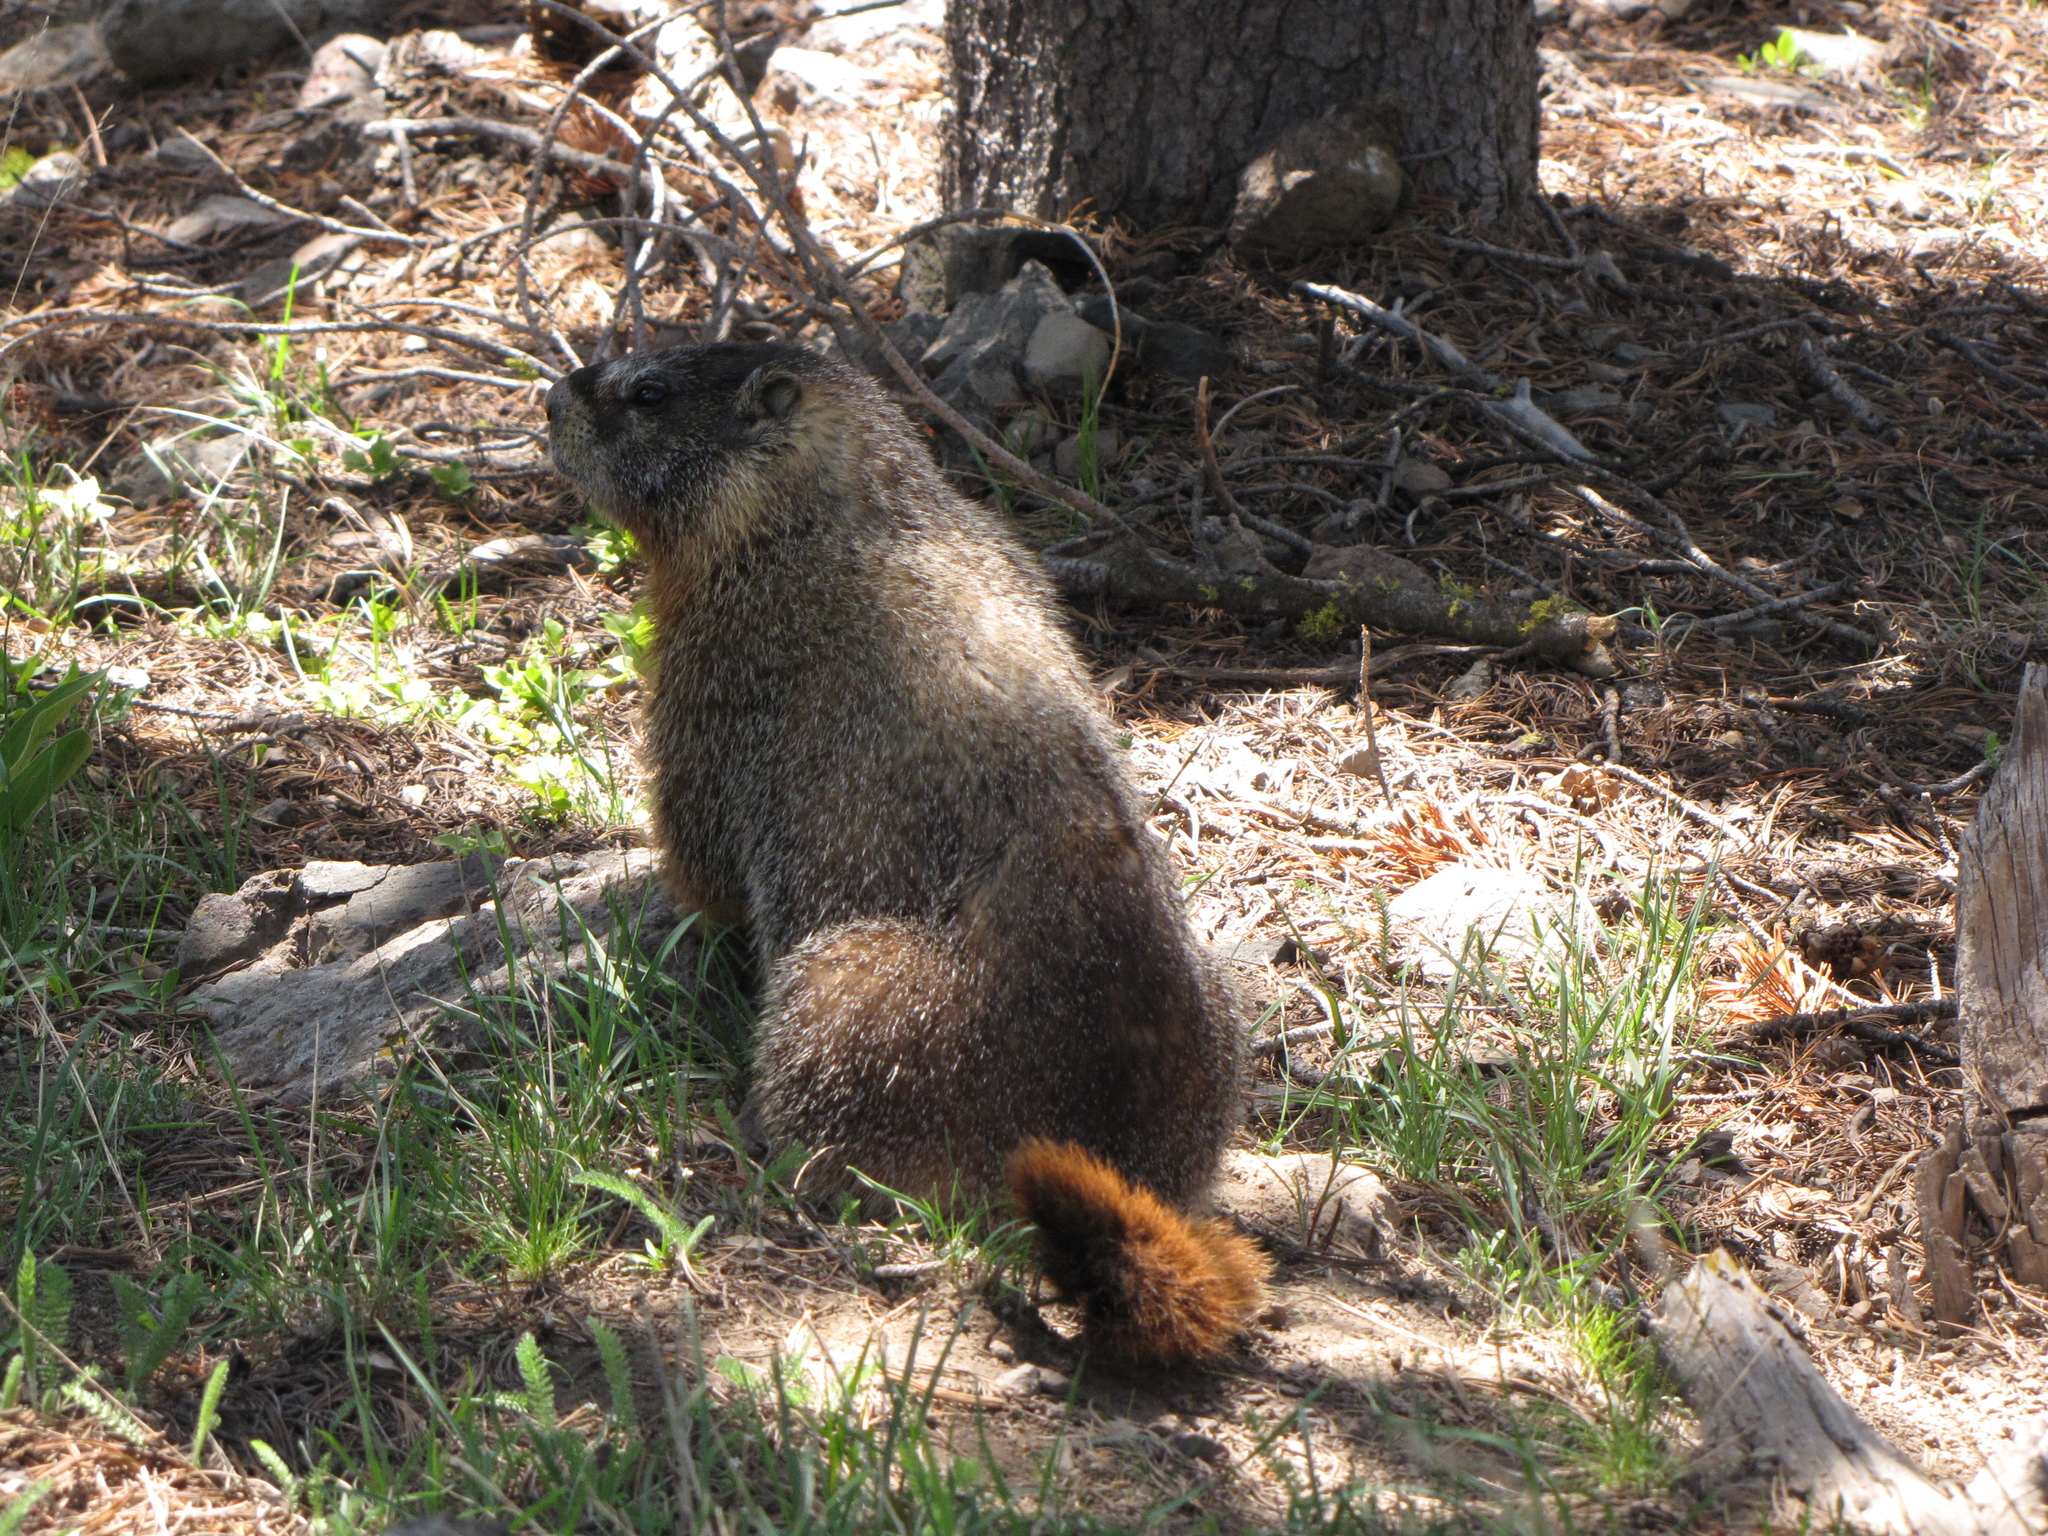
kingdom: Animalia
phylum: Chordata
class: Mammalia
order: Rodentia
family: Sciuridae
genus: Marmota
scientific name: Marmota flaviventris
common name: Yellow-bellied marmot
